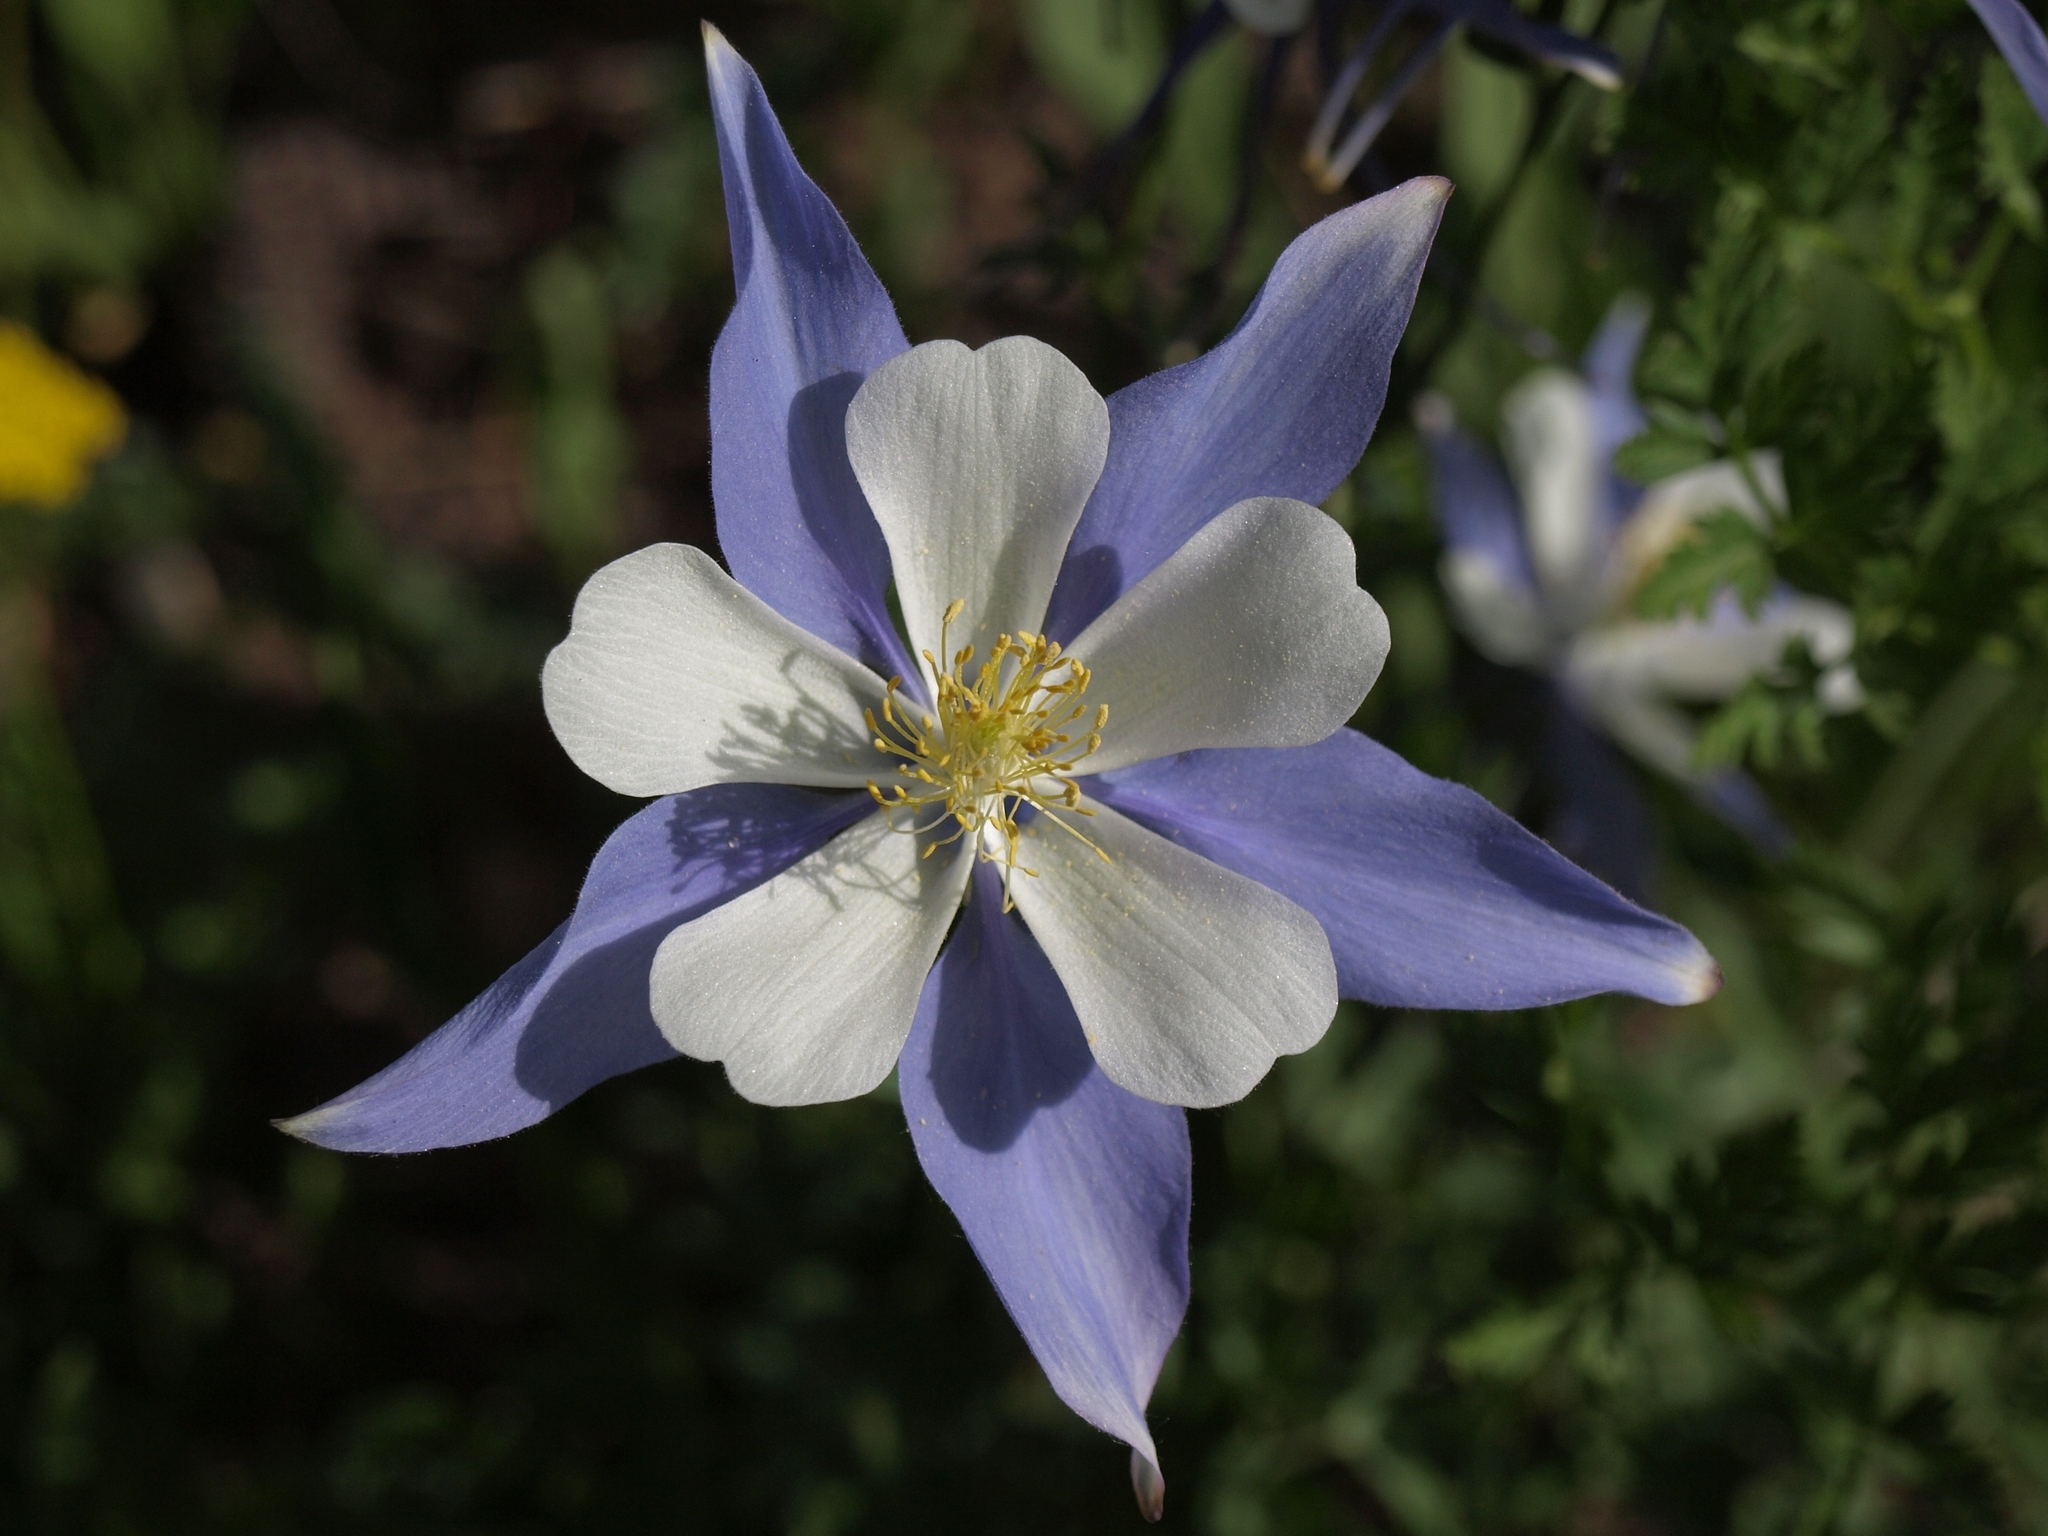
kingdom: Plantae
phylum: Tracheophyta
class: Magnoliopsida
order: Ranunculales
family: Ranunculaceae
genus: Aquilegia
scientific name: Aquilegia coerulea
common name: Rocky mountain columbine
